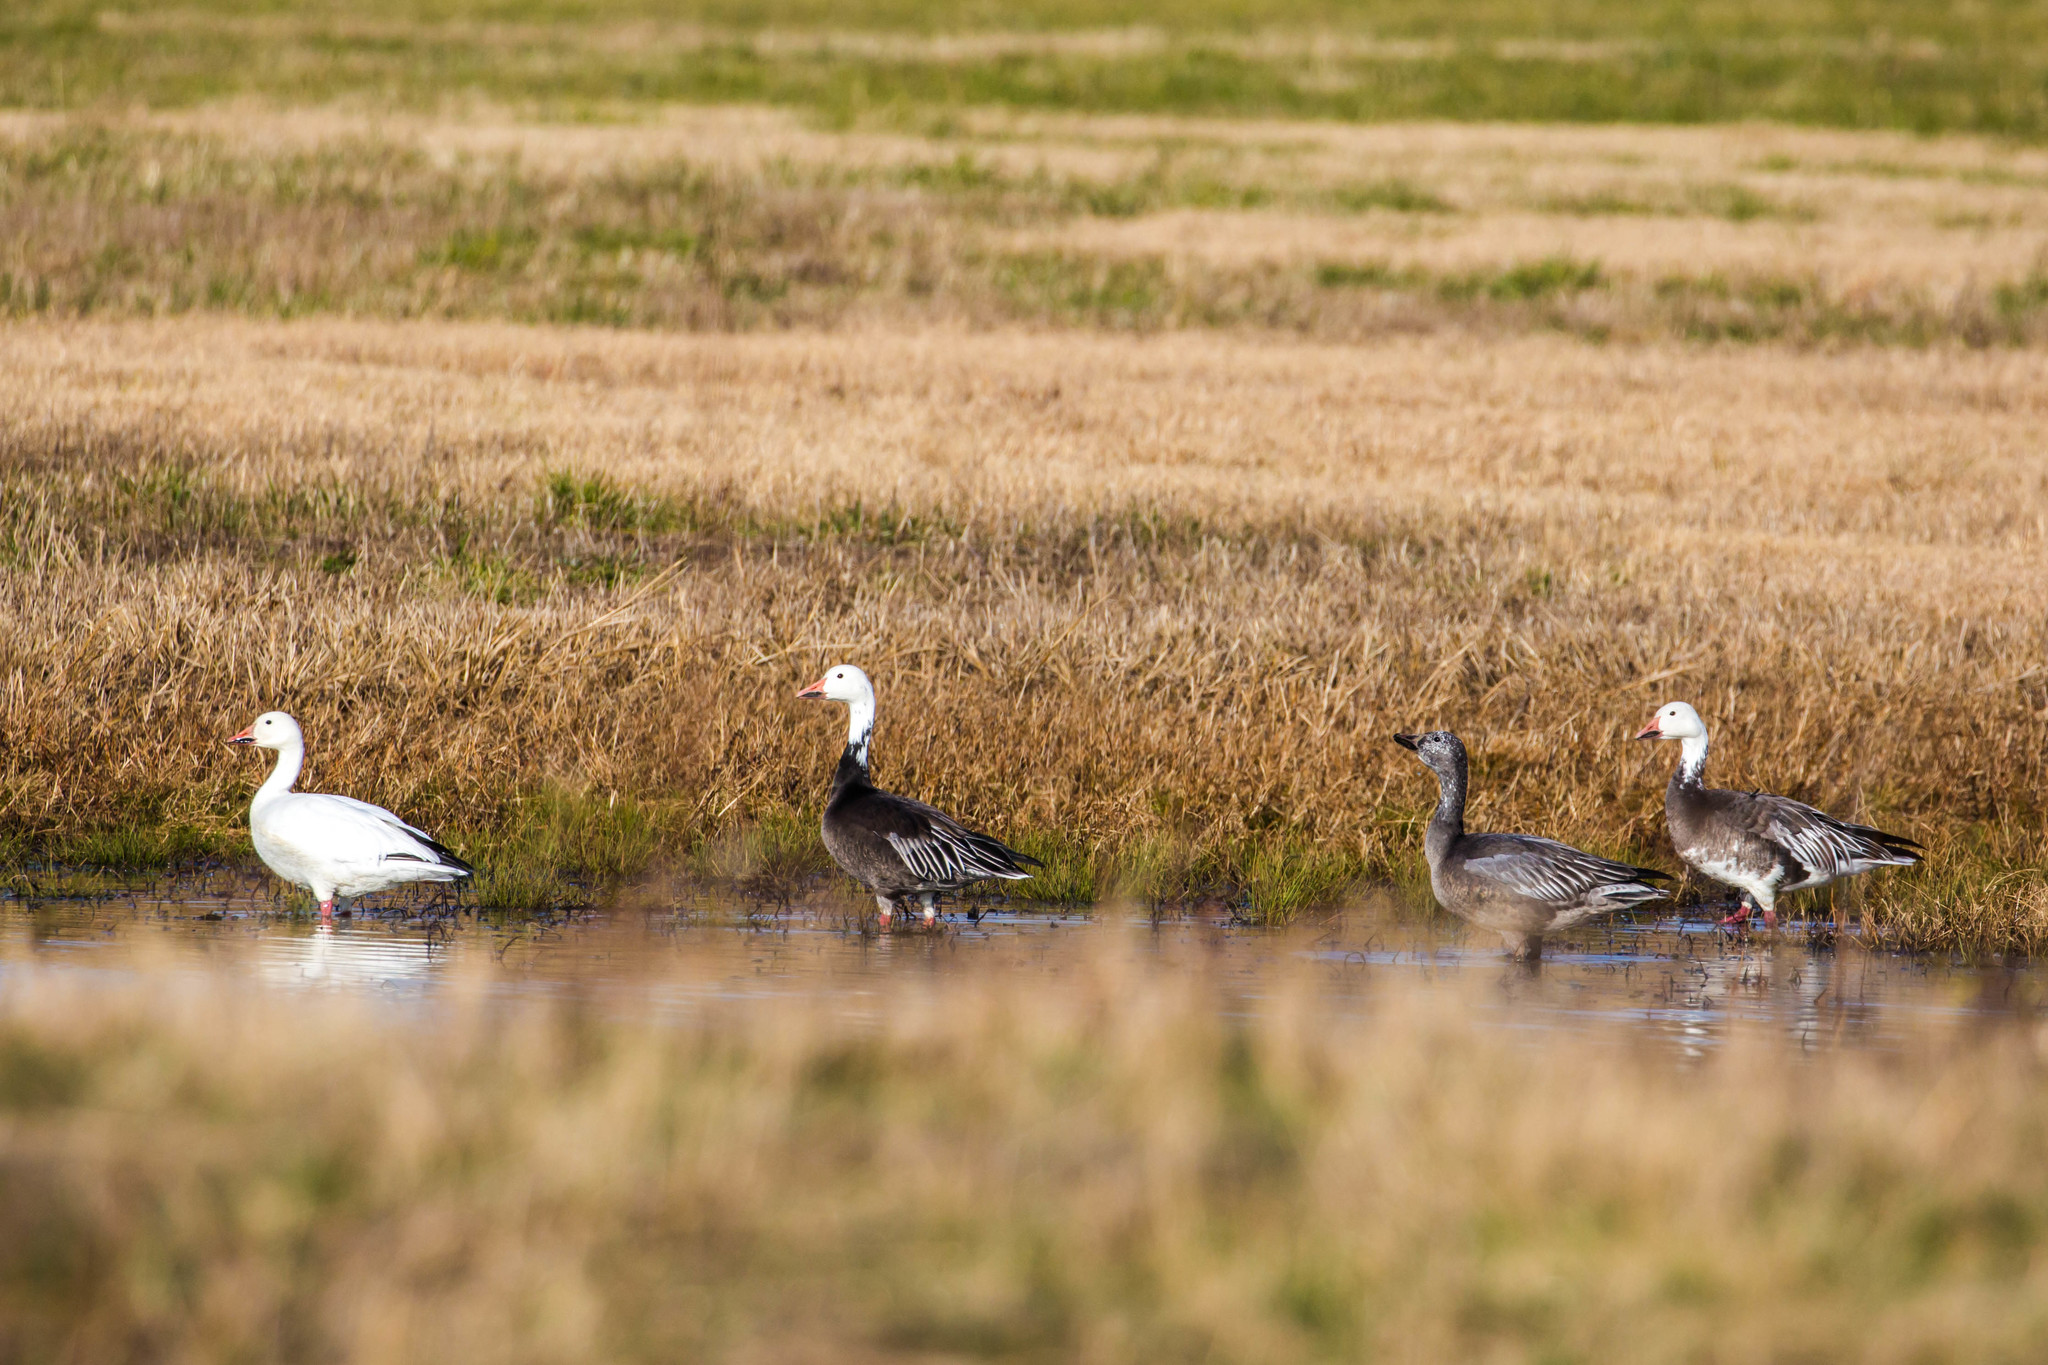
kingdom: Animalia
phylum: Chordata
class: Aves
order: Anseriformes
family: Anatidae
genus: Anser
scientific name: Anser caerulescens
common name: Snow goose
